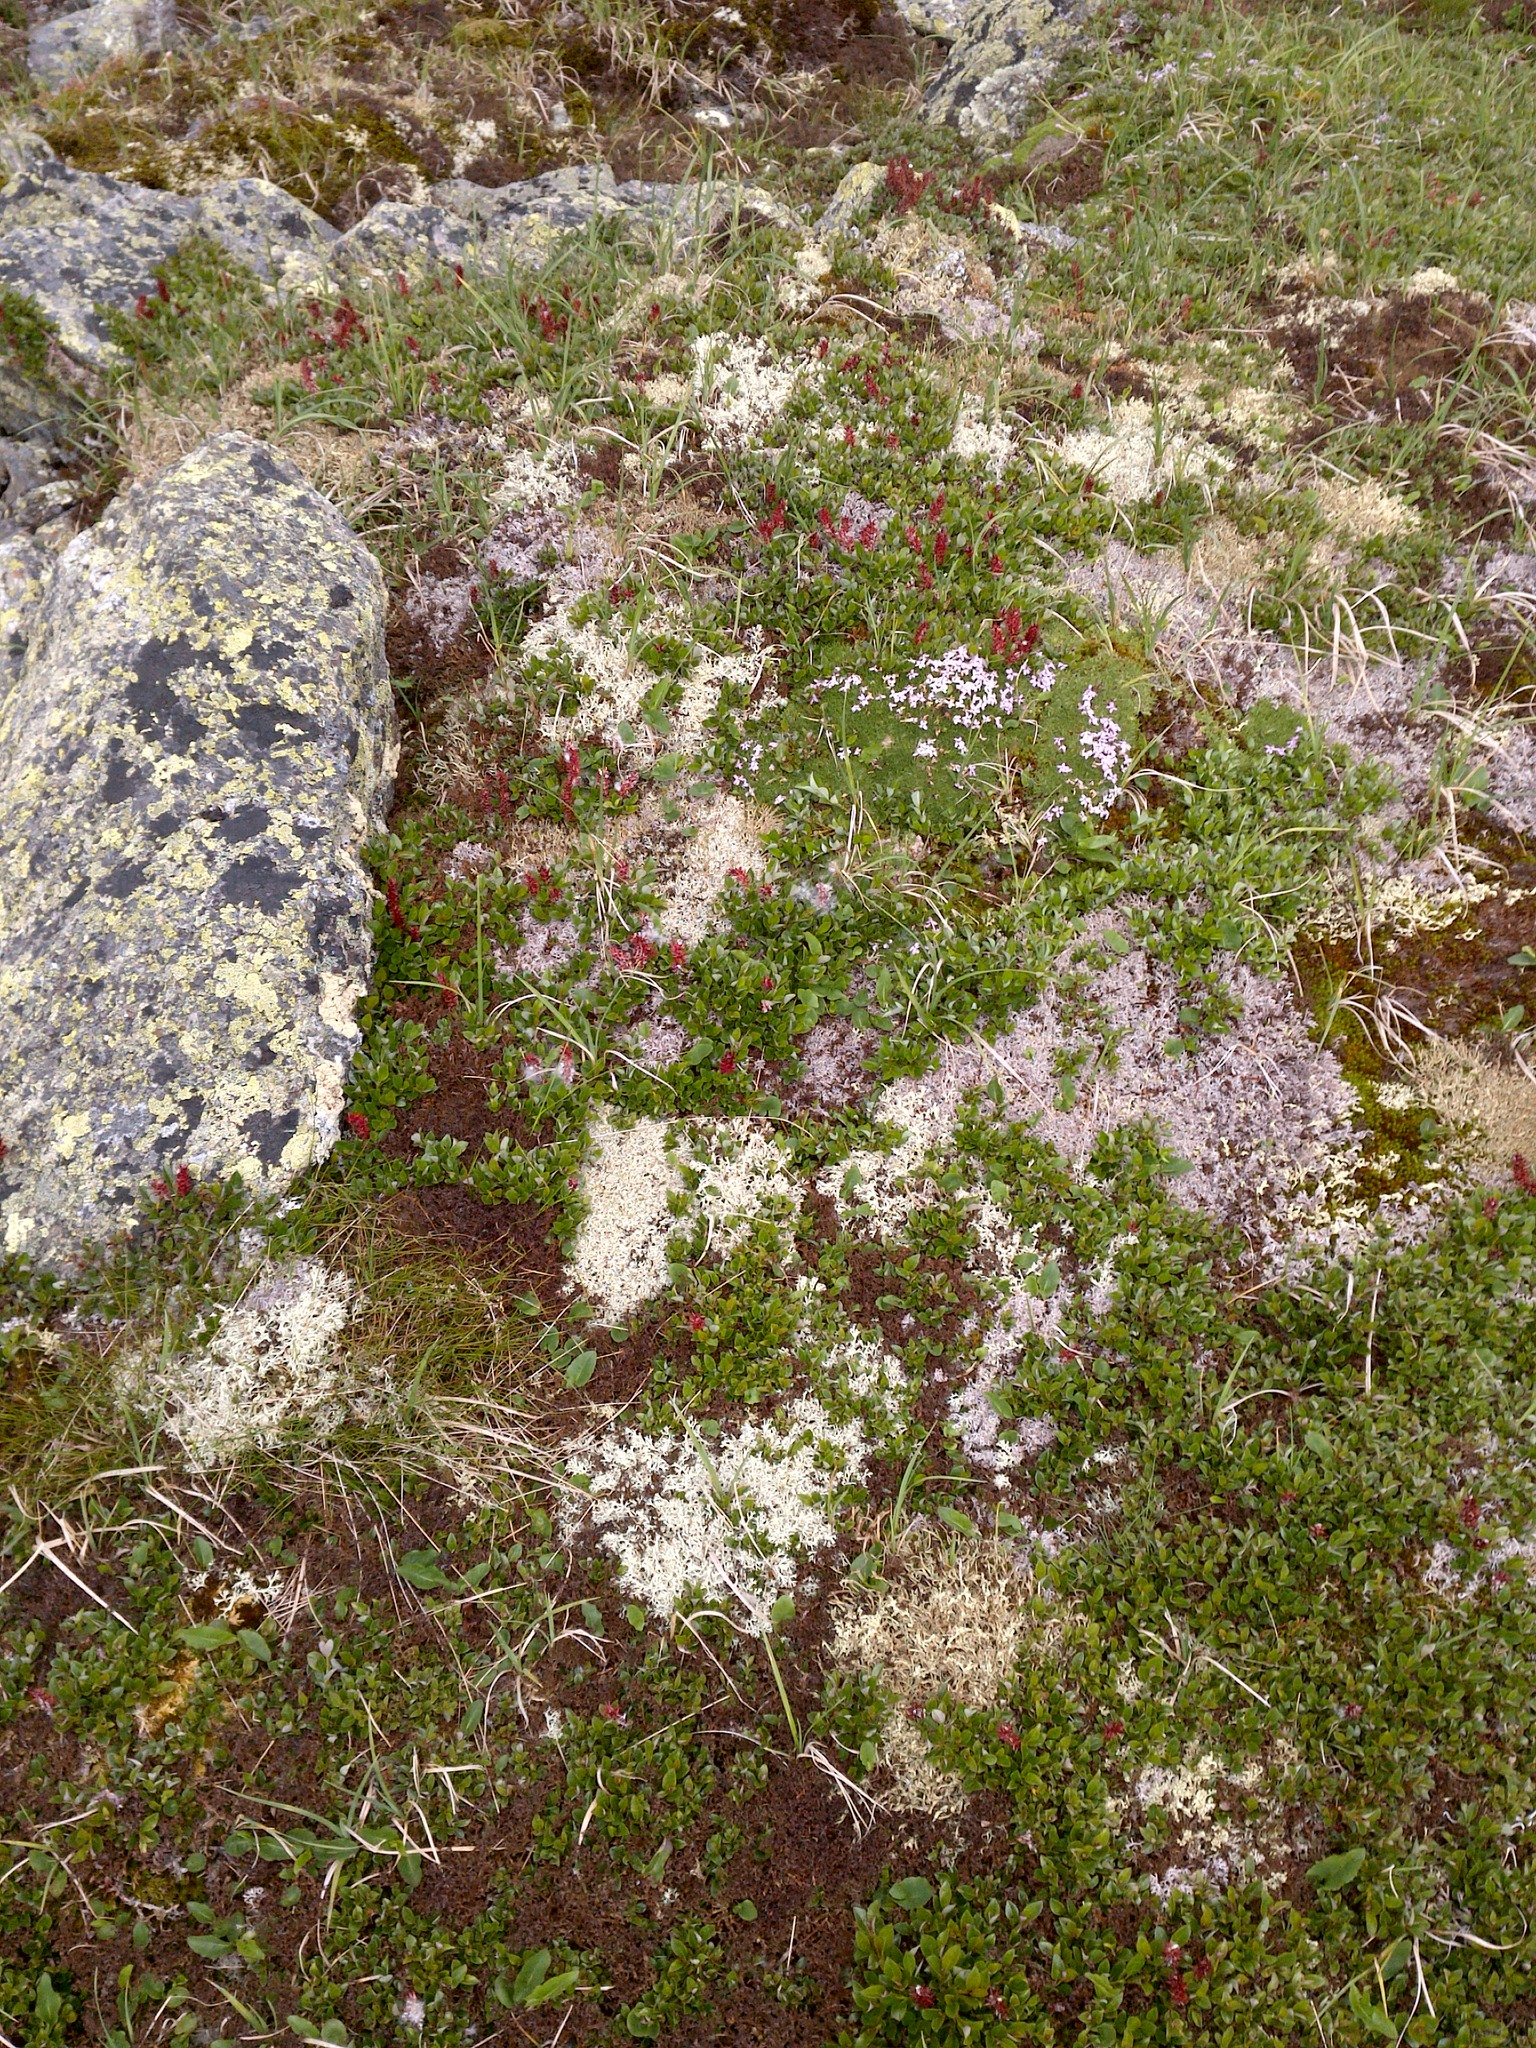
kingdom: Plantae
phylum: Tracheophyta
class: Magnoliopsida
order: Caryophyllales
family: Caryophyllaceae
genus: Silene
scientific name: Silene acaulis
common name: Moss campion
